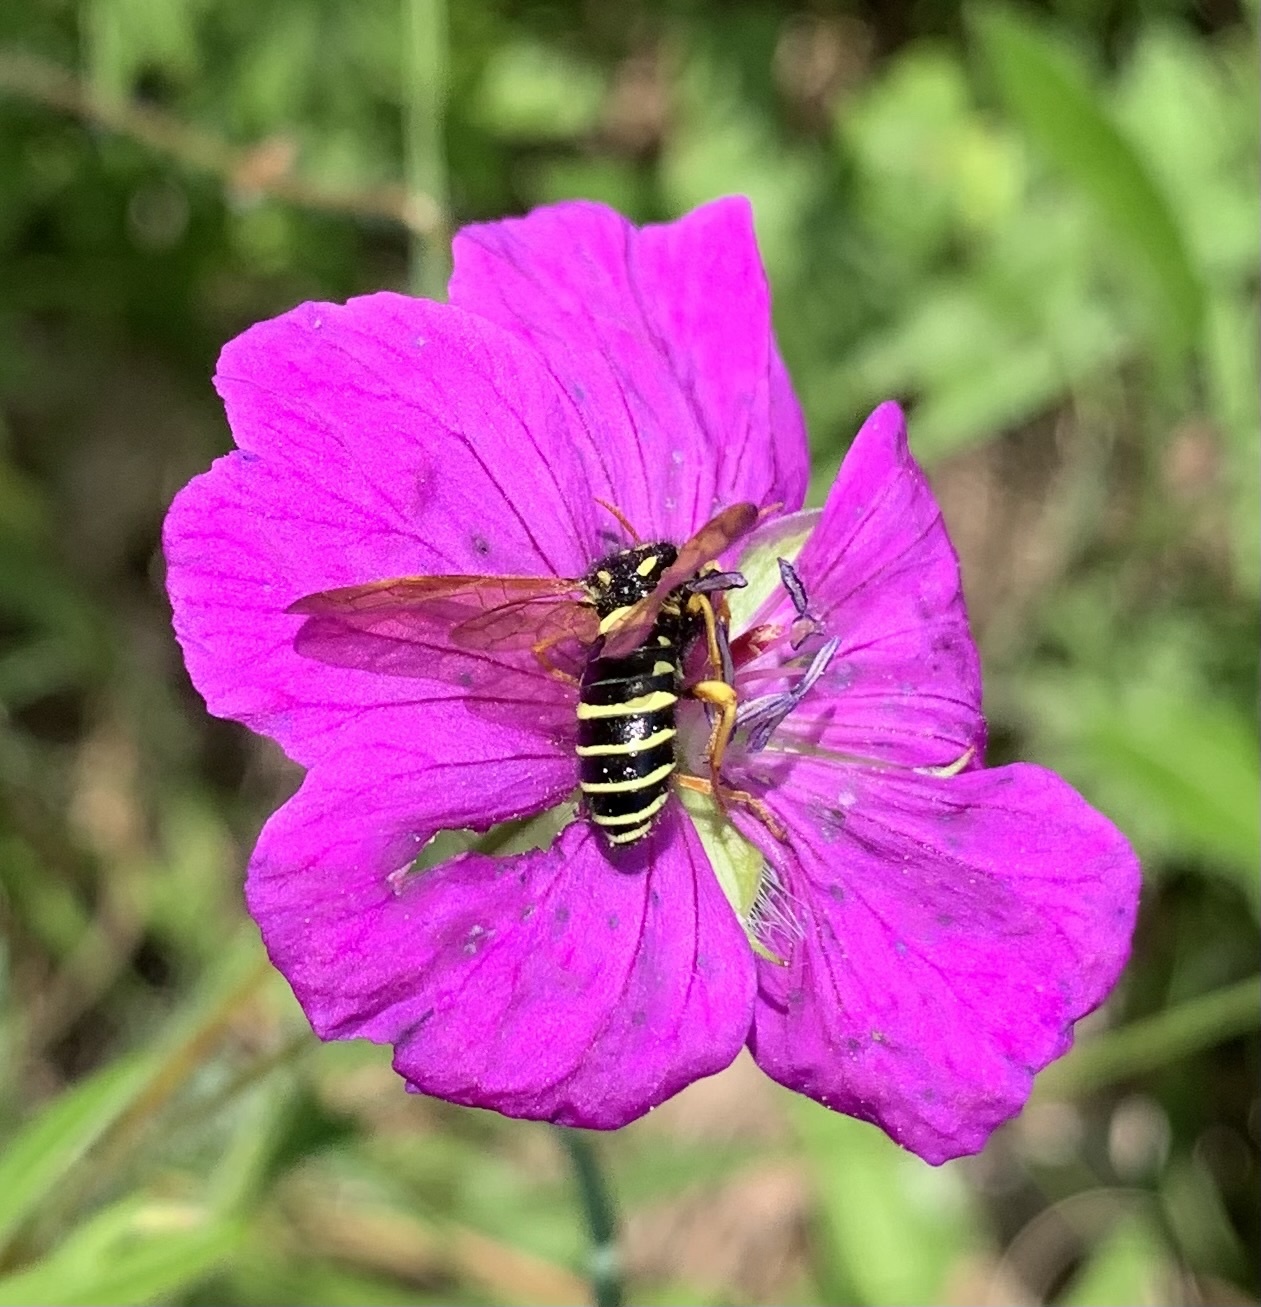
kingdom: Animalia
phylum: Arthropoda
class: Insecta
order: Hymenoptera
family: Megalodontesidae
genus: Megalodontes
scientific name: Megalodontes panzeri
